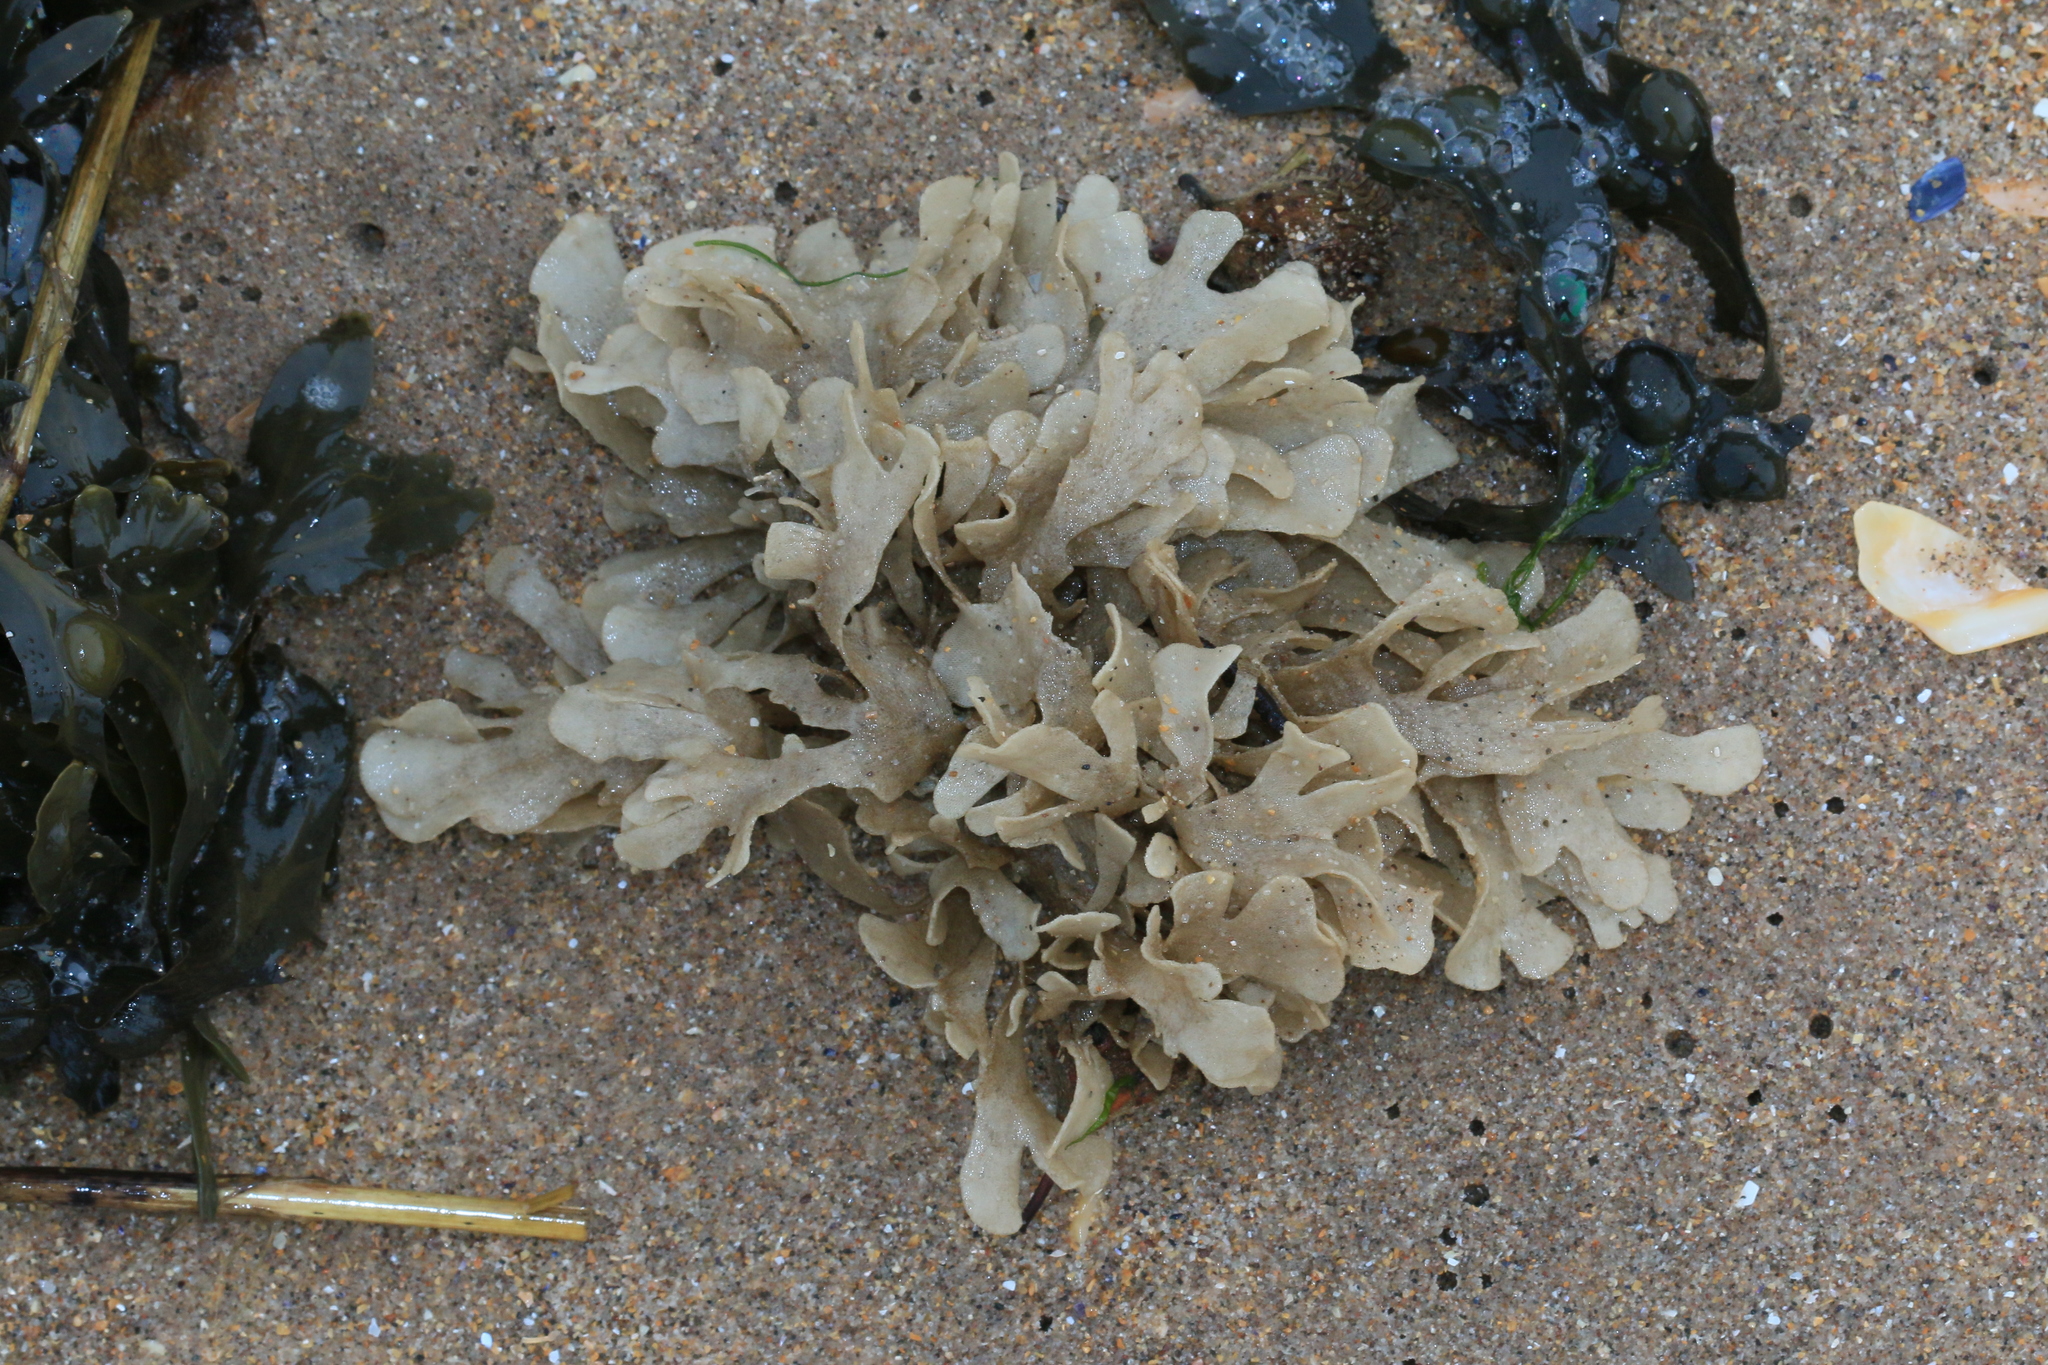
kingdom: Animalia
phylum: Bryozoa
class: Gymnolaemata
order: Cheilostomatida
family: Flustridae
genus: Flustra
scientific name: Flustra foliacea
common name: Hornwrack
